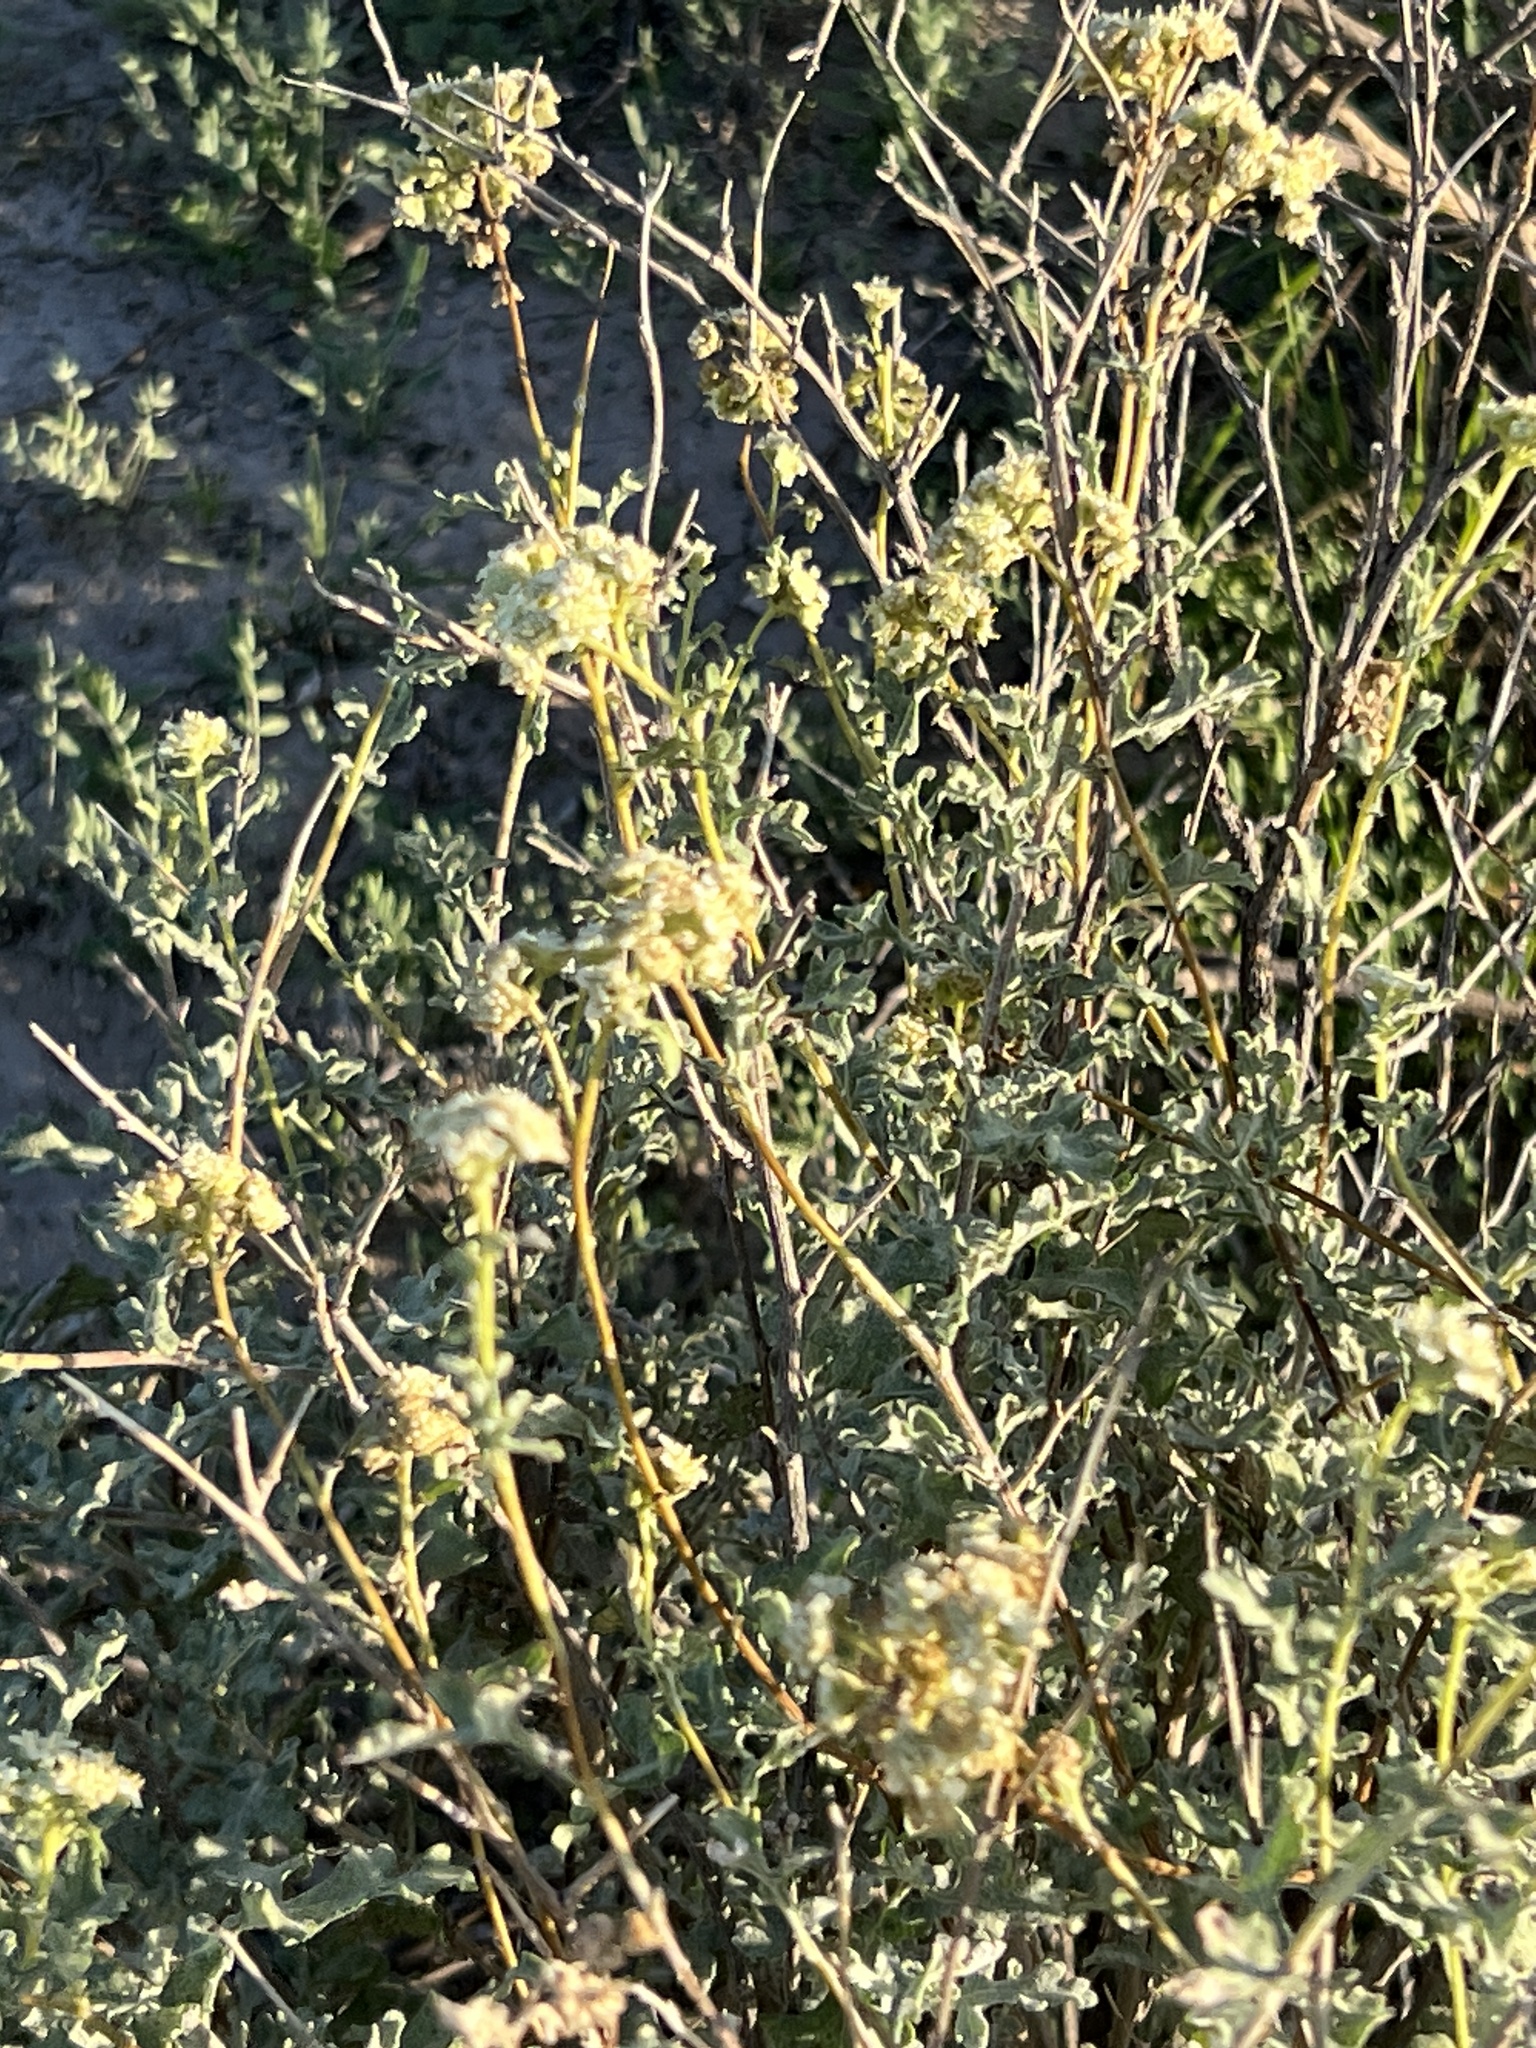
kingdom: Plantae
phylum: Tracheophyta
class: Magnoliopsida
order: Asterales
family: Asteraceae
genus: Parthenium
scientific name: Parthenium incanum
